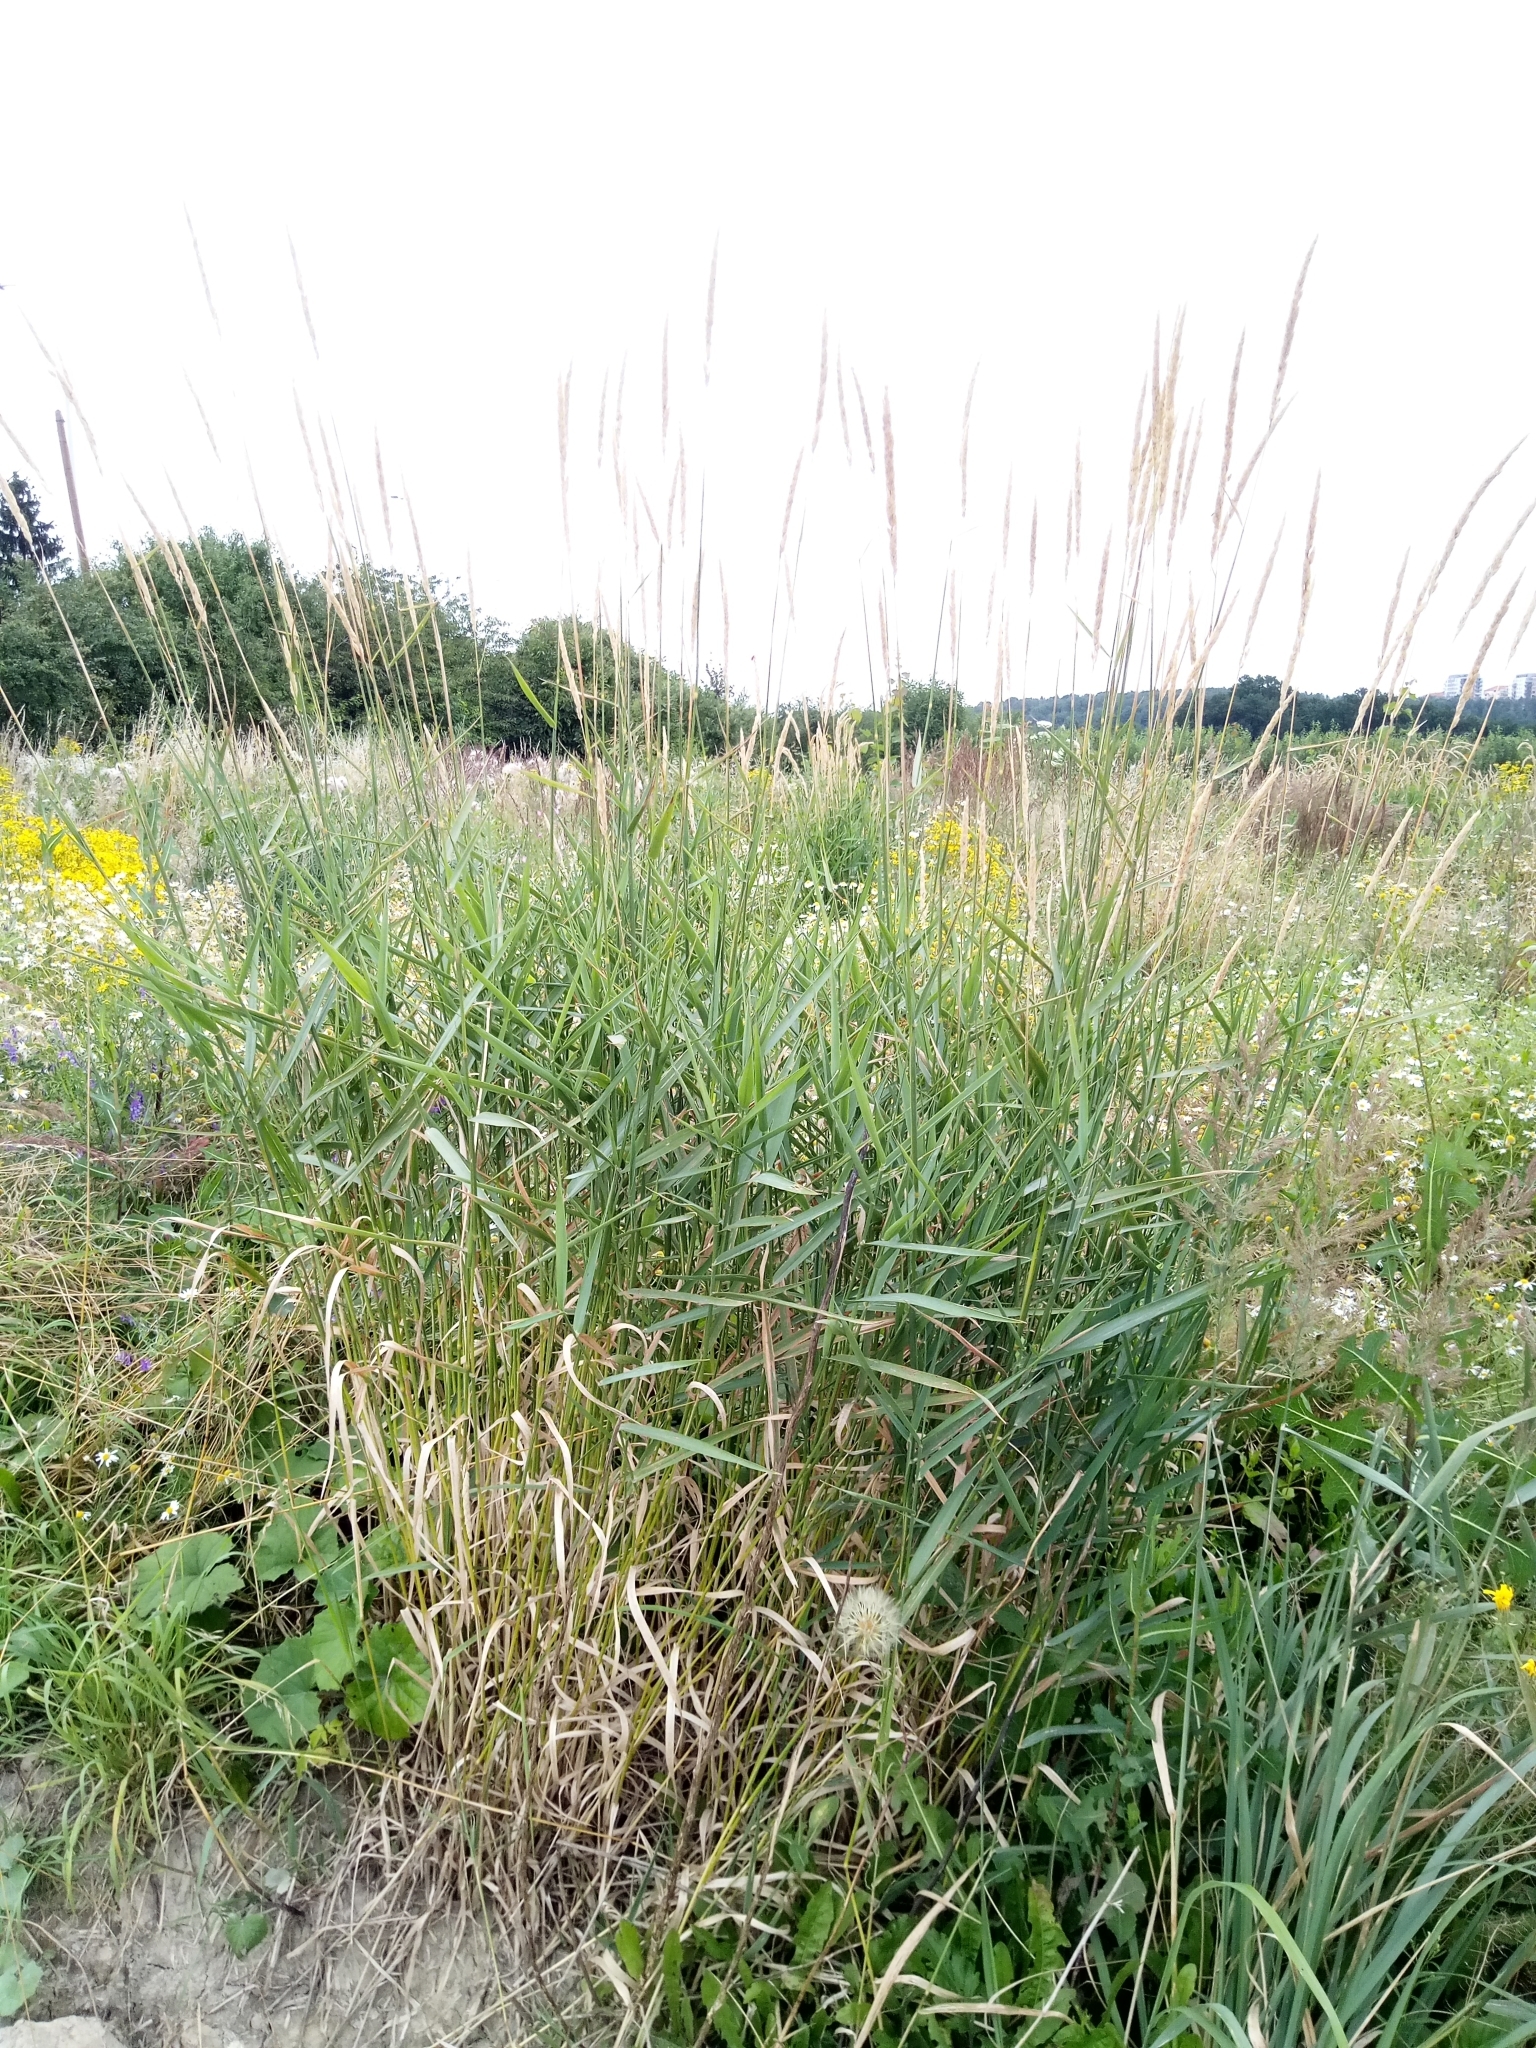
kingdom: Plantae
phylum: Tracheophyta
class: Liliopsida
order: Poales
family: Poaceae
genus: Phalaris
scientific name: Phalaris arundinacea
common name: Reed canary-grass
